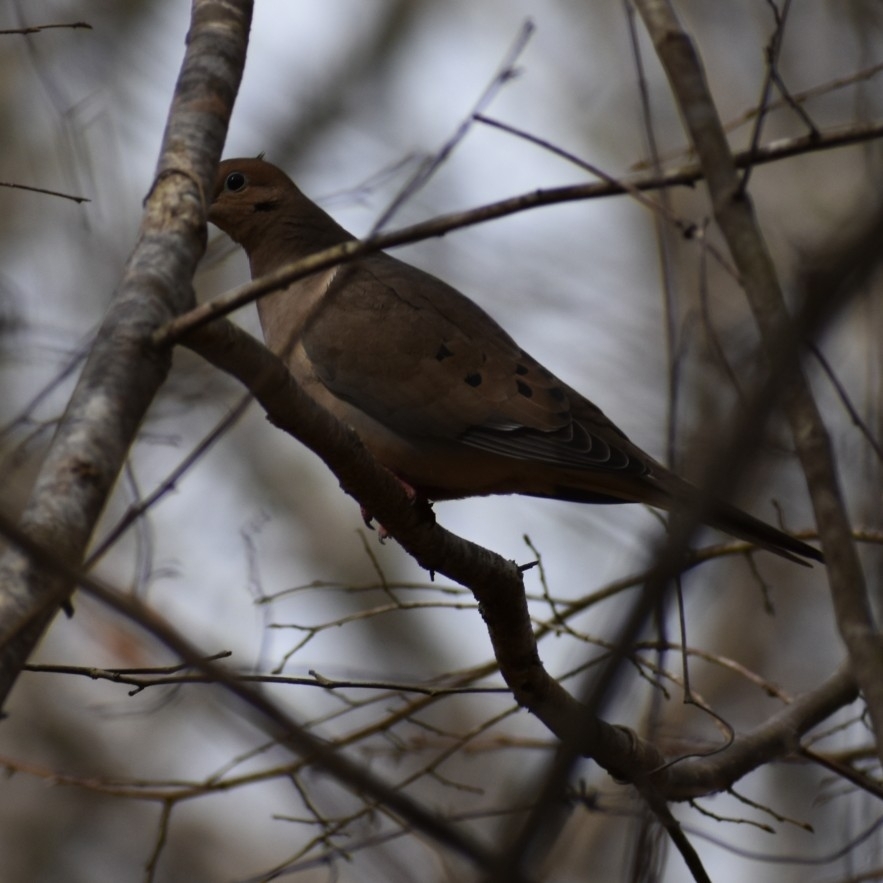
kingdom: Animalia
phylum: Chordata
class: Aves
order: Columbiformes
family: Columbidae
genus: Zenaida
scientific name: Zenaida macroura
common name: Mourning dove
